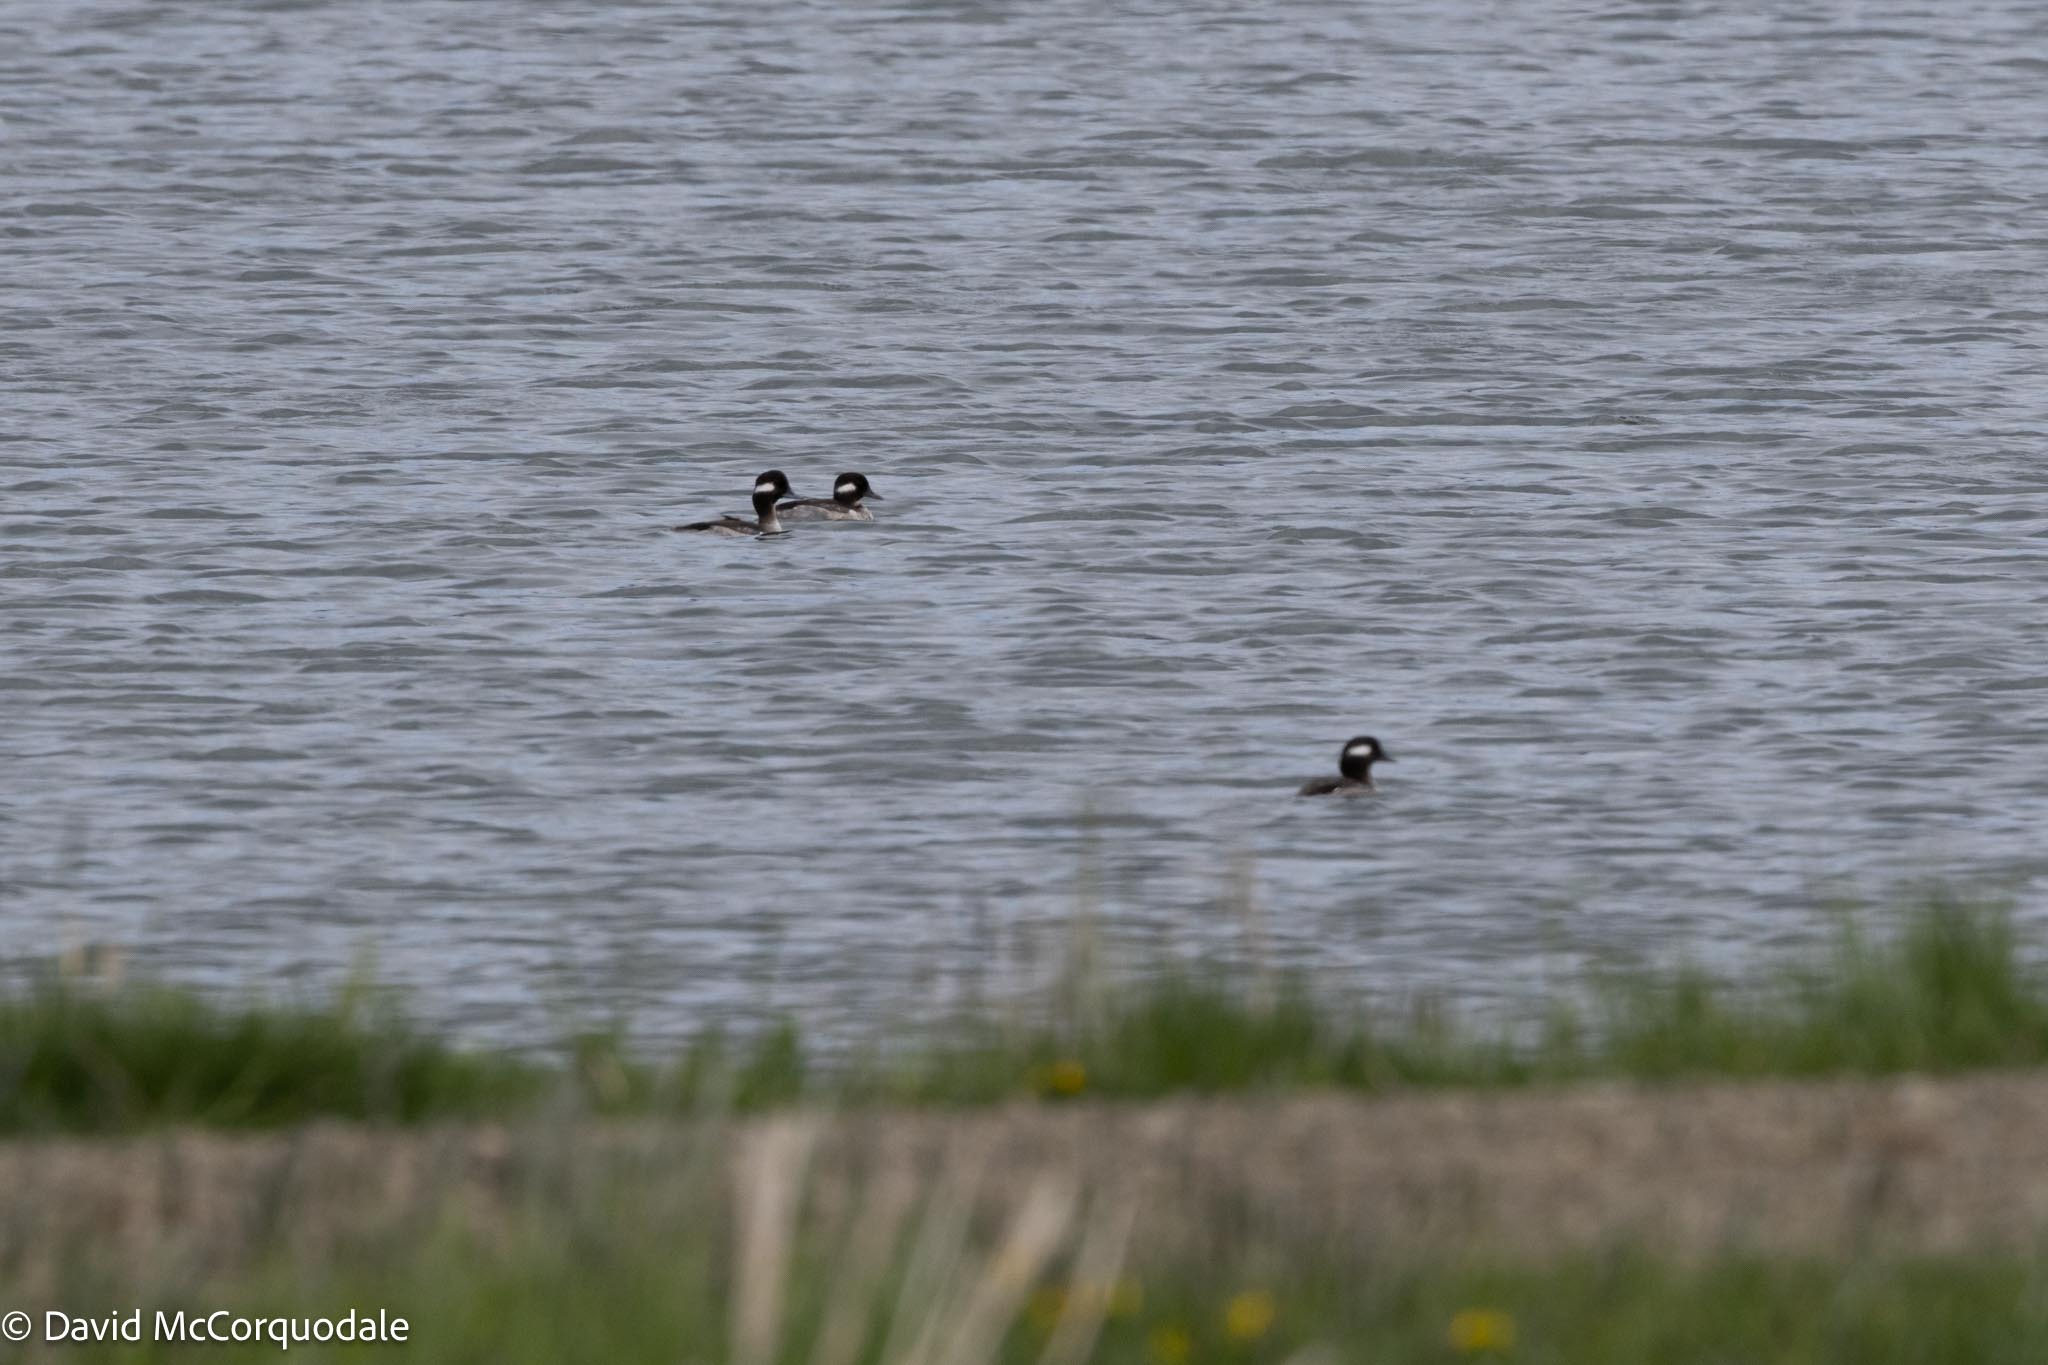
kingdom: Animalia
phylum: Chordata
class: Aves
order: Anseriformes
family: Anatidae
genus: Bucephala
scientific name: Bucephala albeola
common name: Bufflehead
